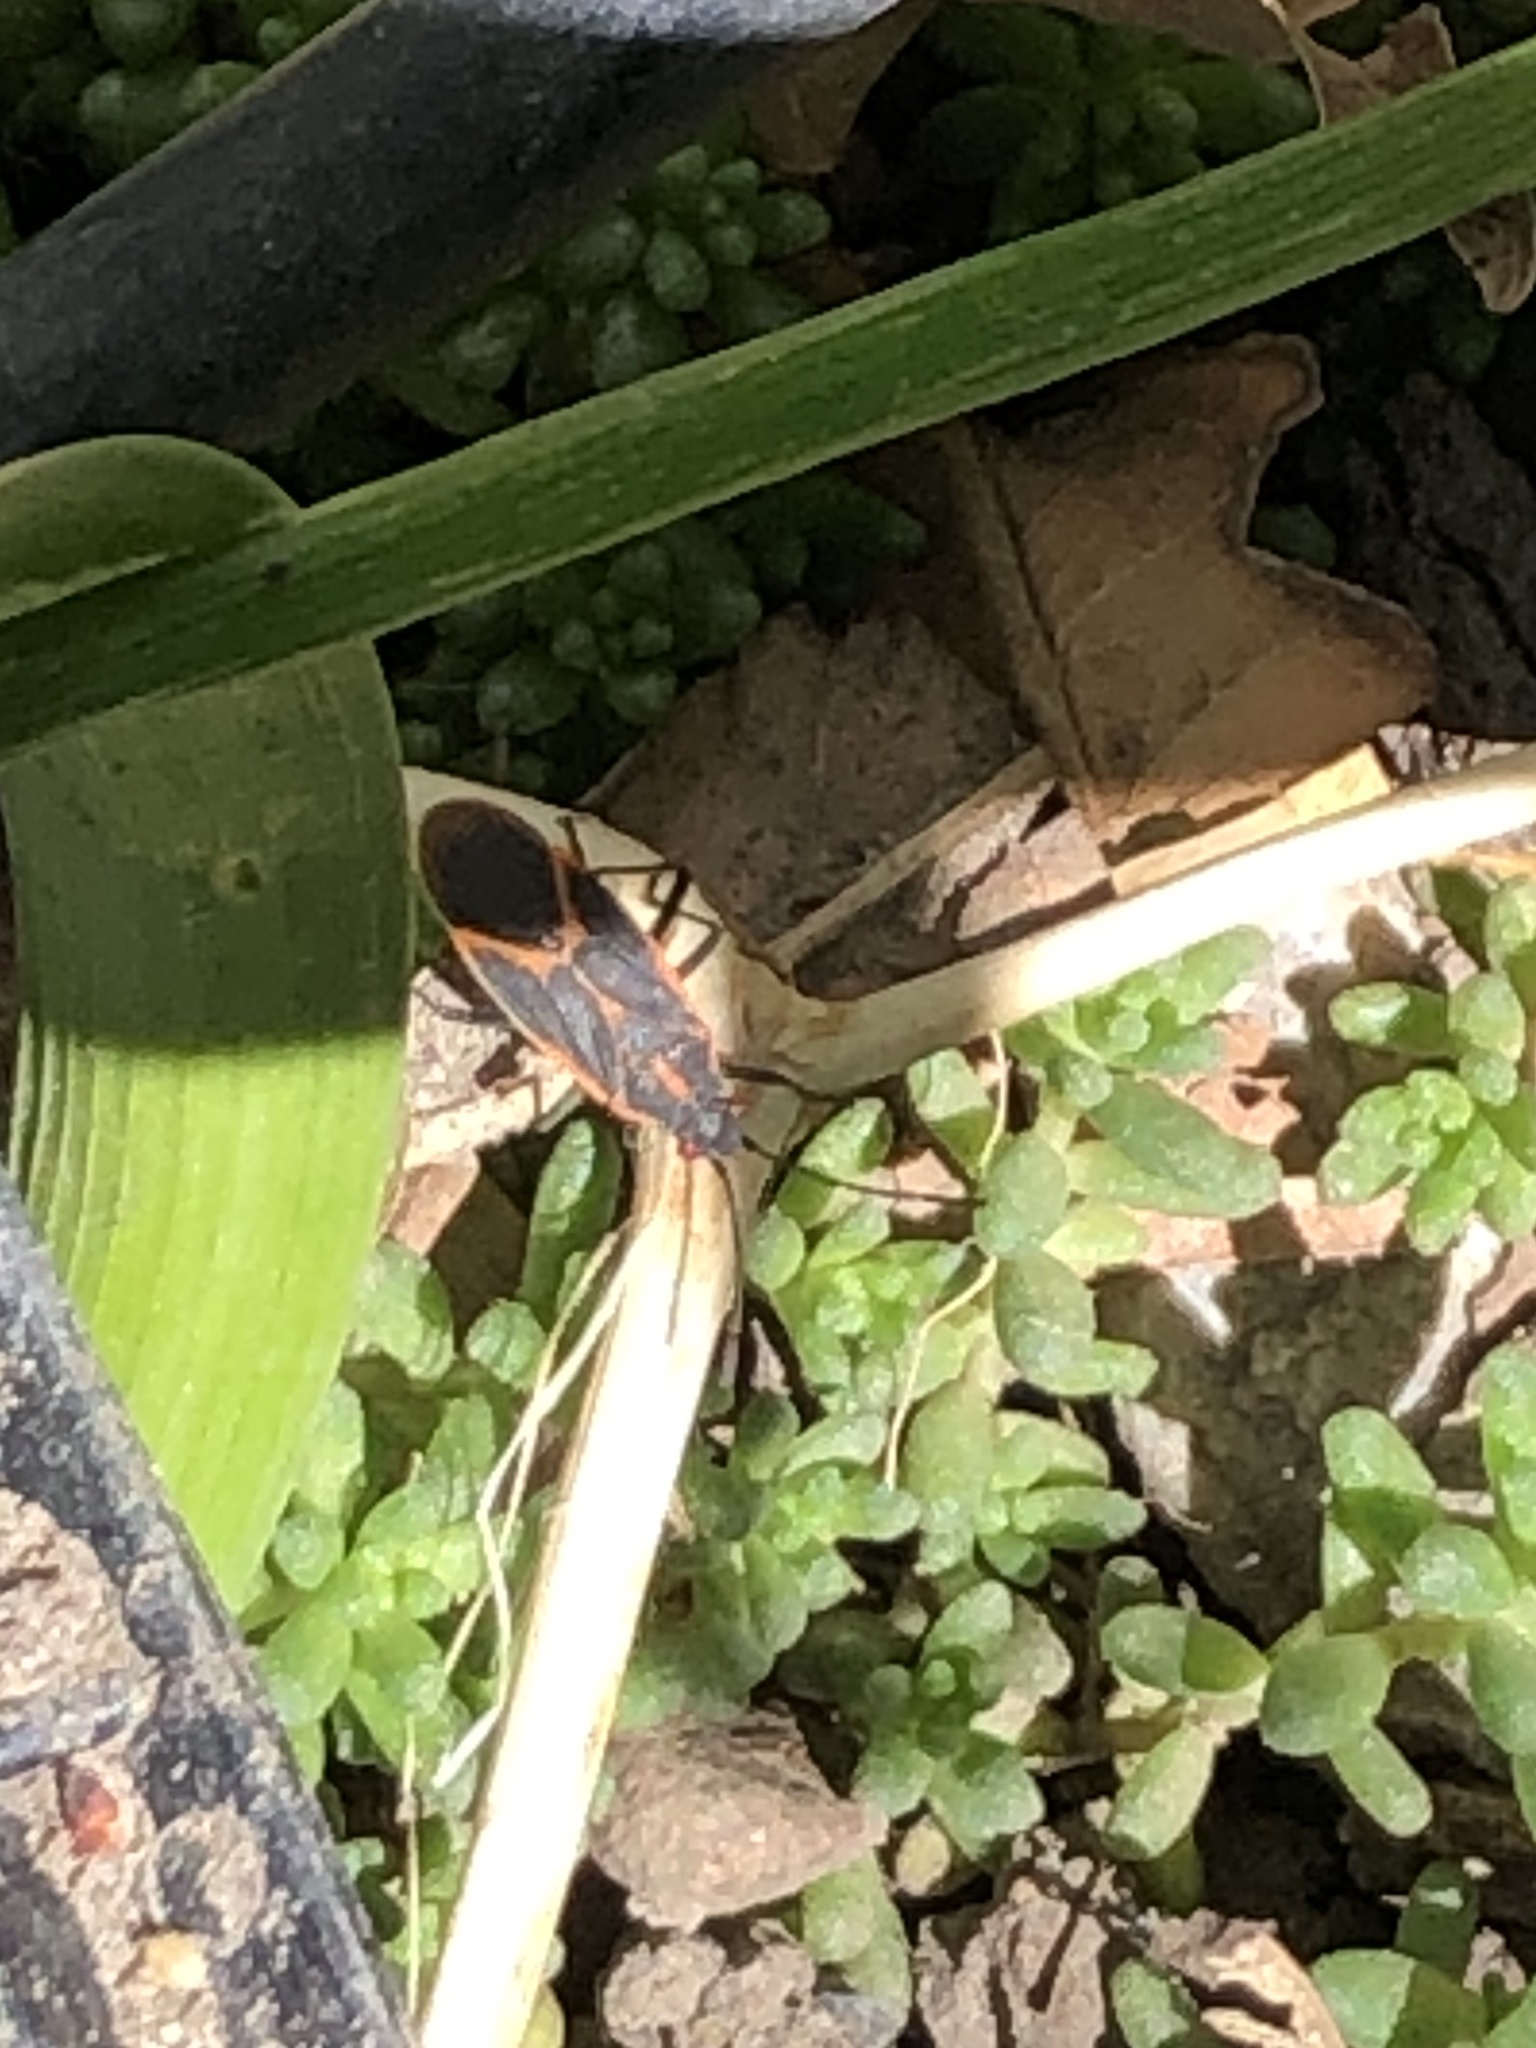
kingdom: Animalia
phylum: Arthropoda
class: Insecta
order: Hemiptera
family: Rhopalidae
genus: Boisea
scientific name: Boisea trivittata
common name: Boxelder bug
